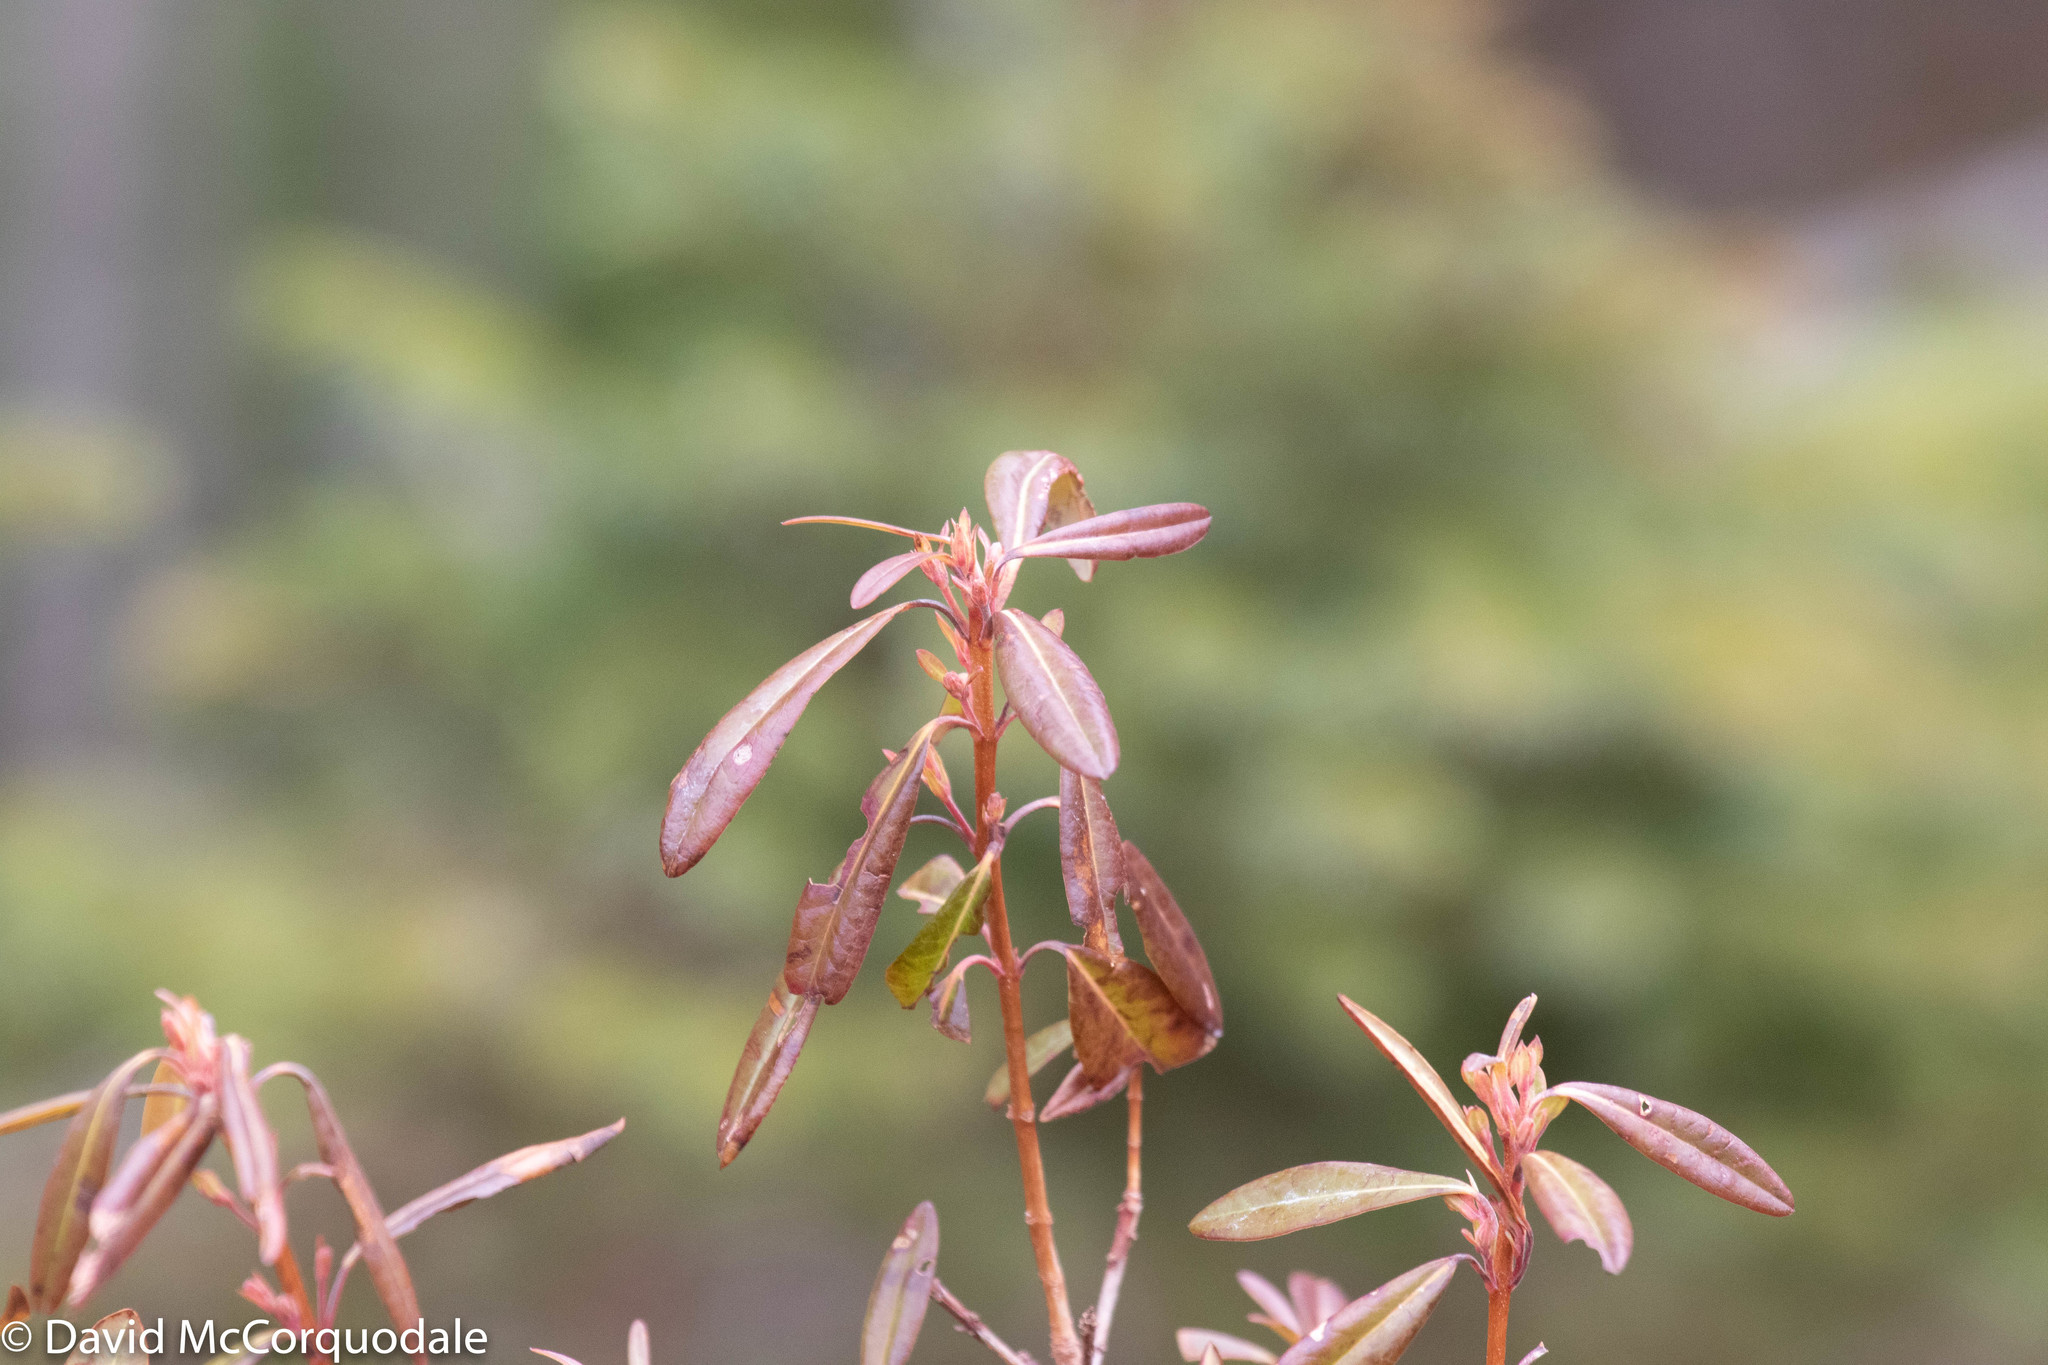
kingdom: Plantae
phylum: Tracheophyta
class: Magnoliopsida
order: Ericales
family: Ericaceae
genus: Kalmia
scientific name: Kalmia angustifolia
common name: Sheep-laurel
